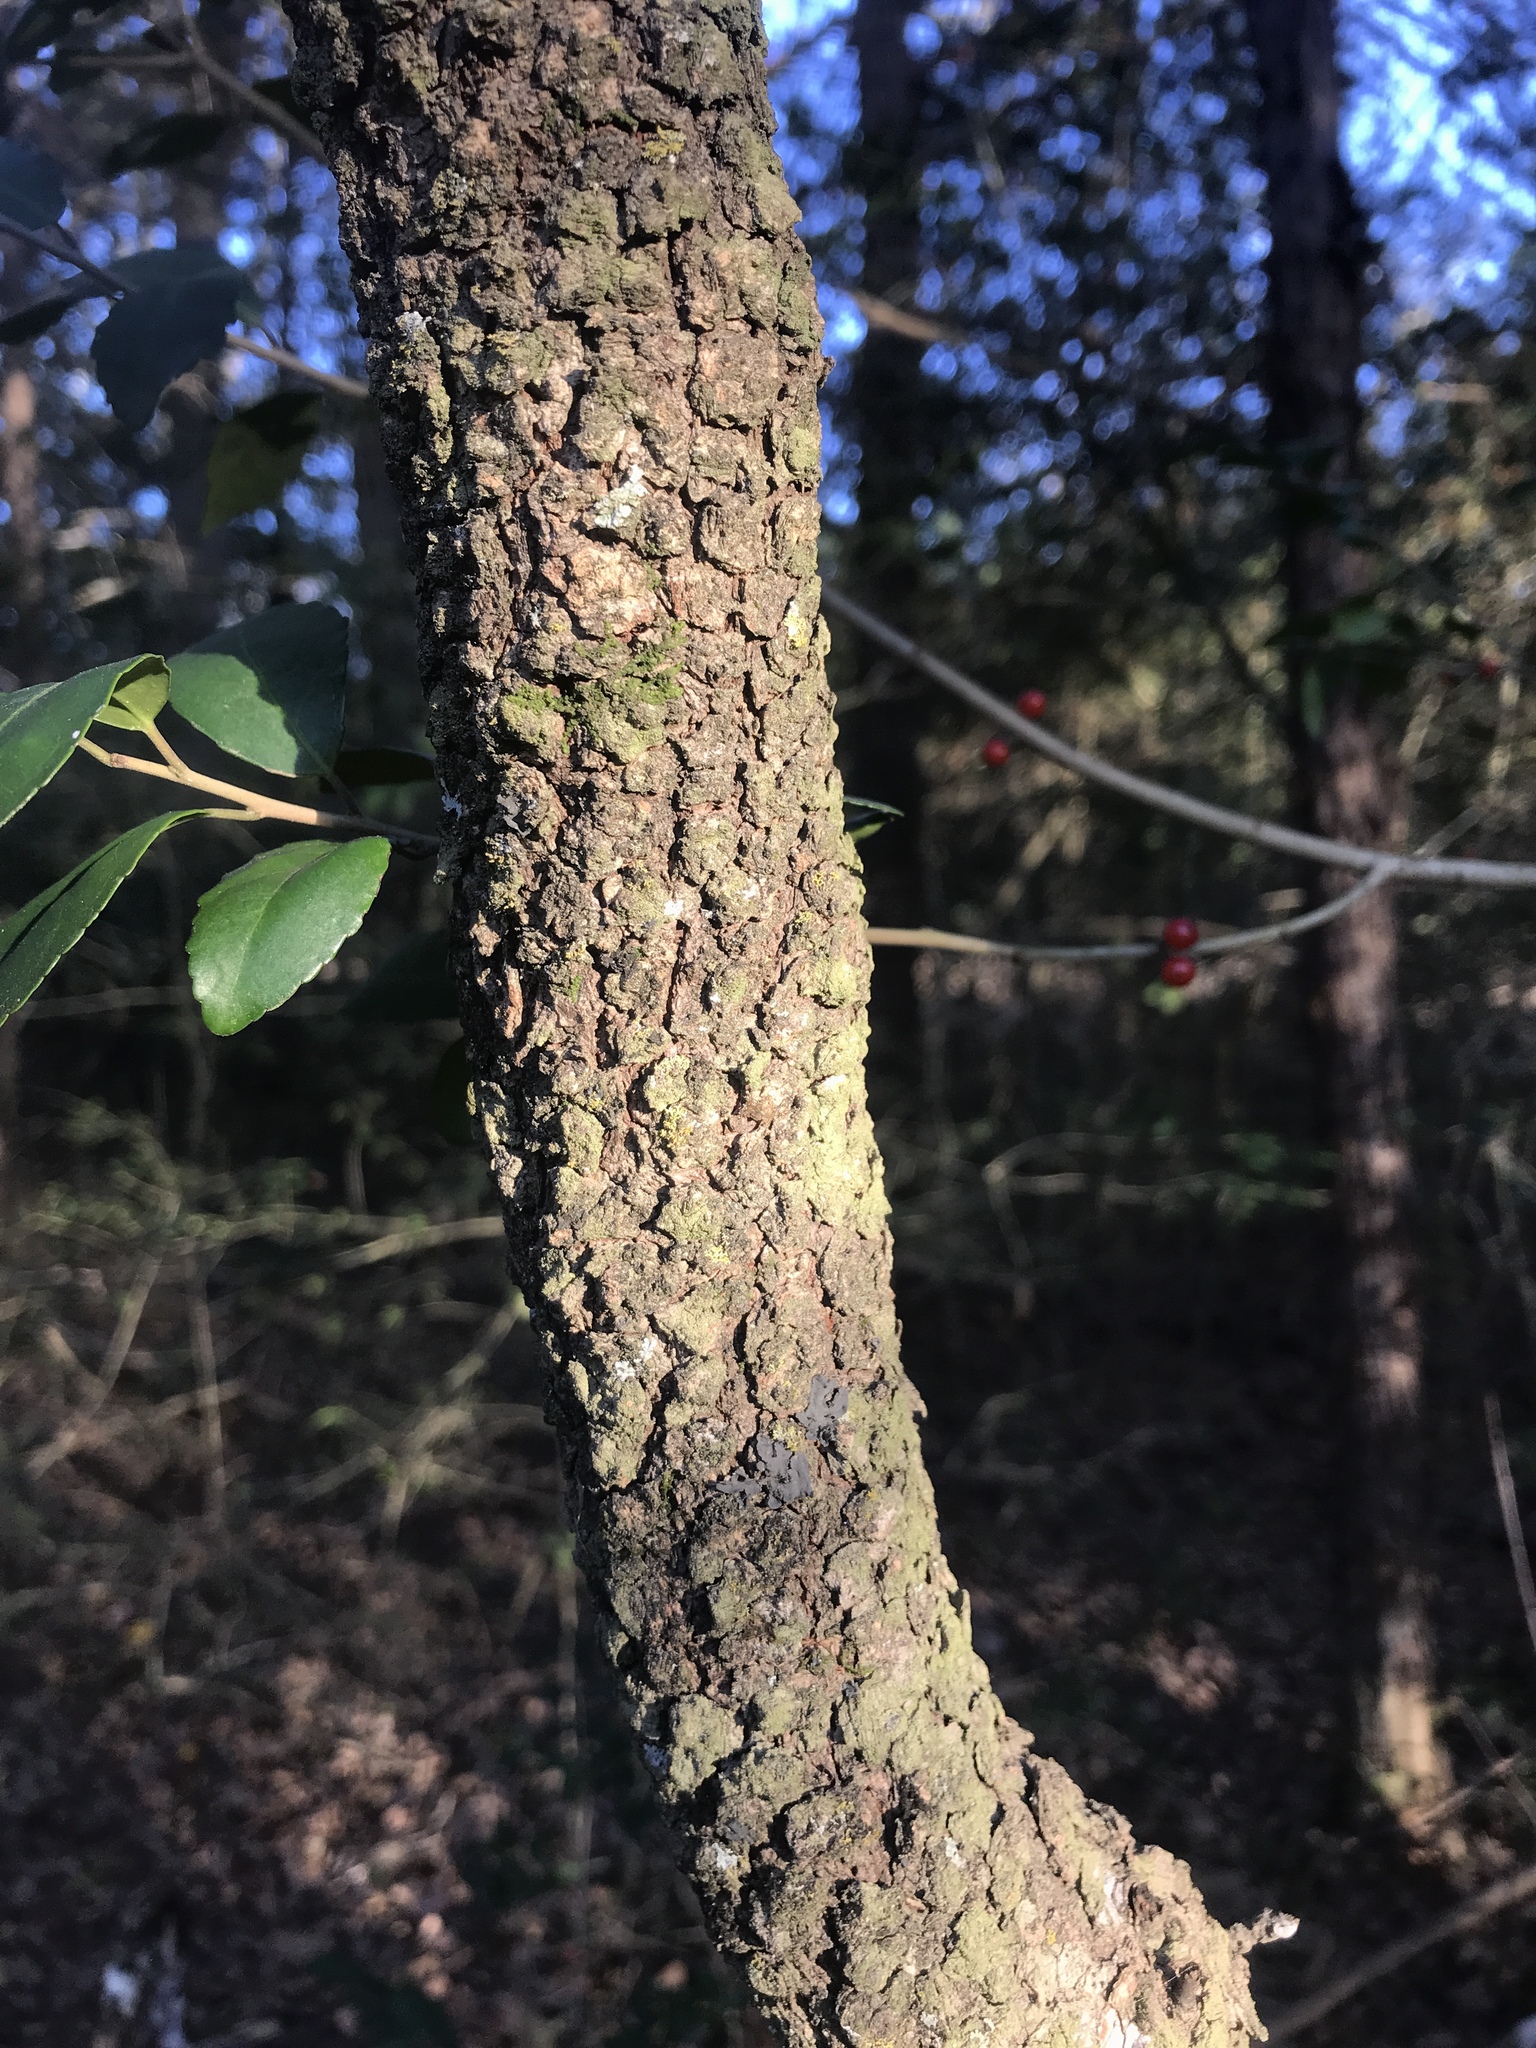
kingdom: Plantae
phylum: Tracheophyta
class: Magnoliopsida
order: Dipsacales
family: Viburnaceae
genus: Viburnum
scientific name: Viburnum rufidulum
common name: Blue haw
